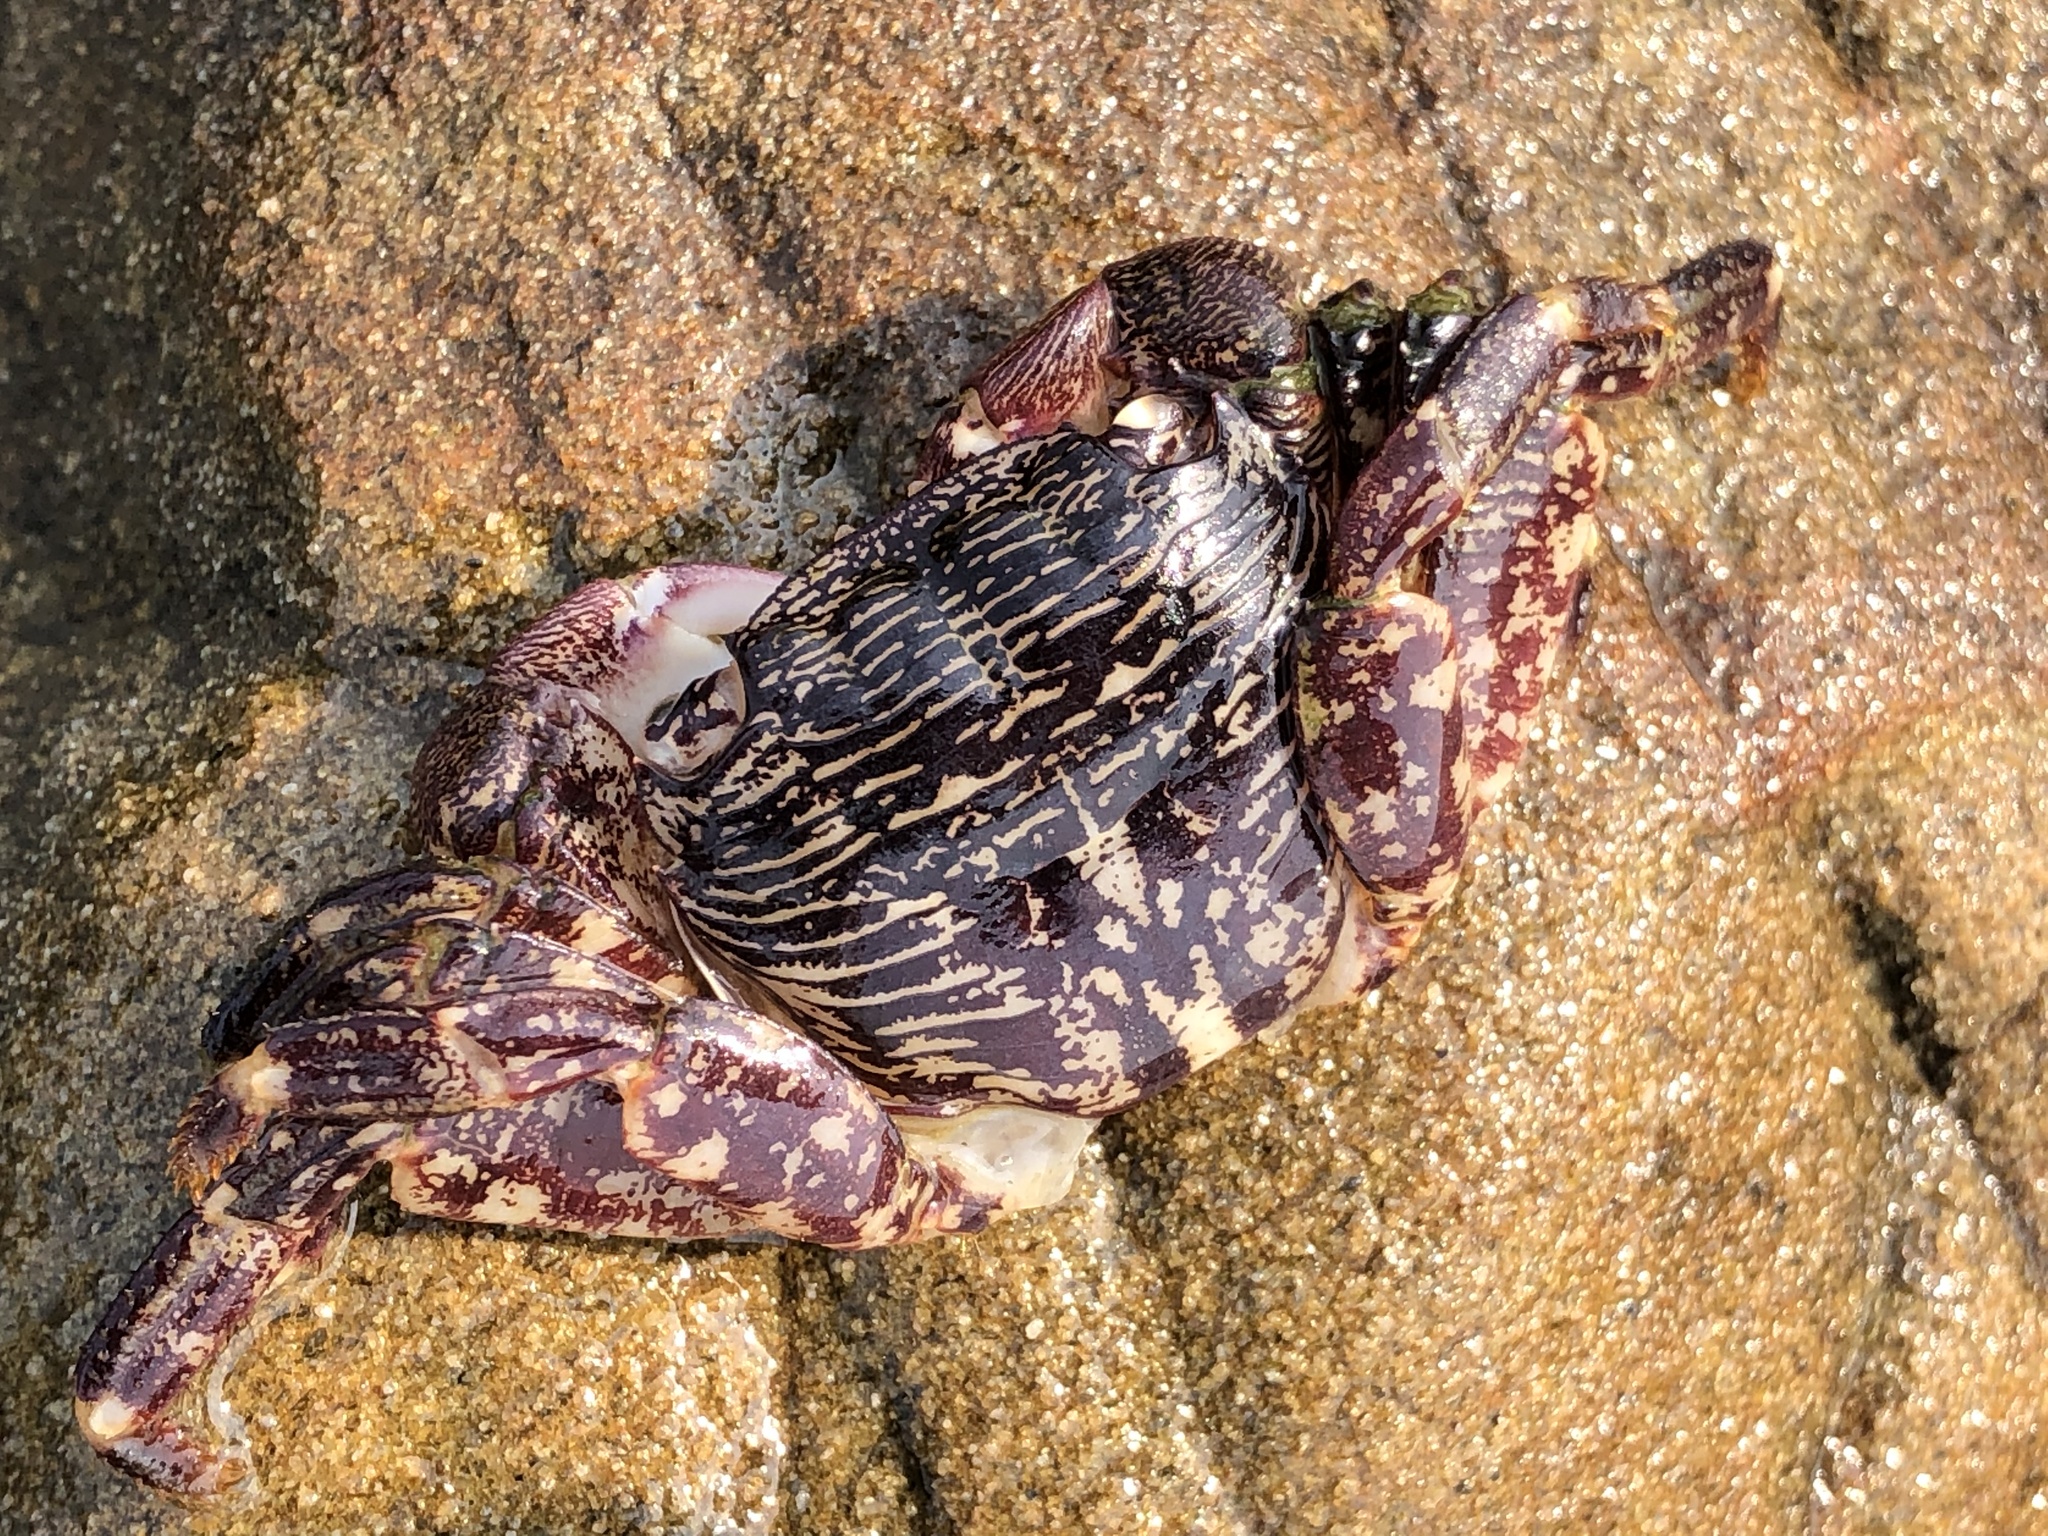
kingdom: Animalia
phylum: Arthropoda
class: Malacostraca
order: Decapoda
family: Grapsidae
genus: Pachygrapsus
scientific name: Pachygrapsus crassipes
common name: Striped shore crab
